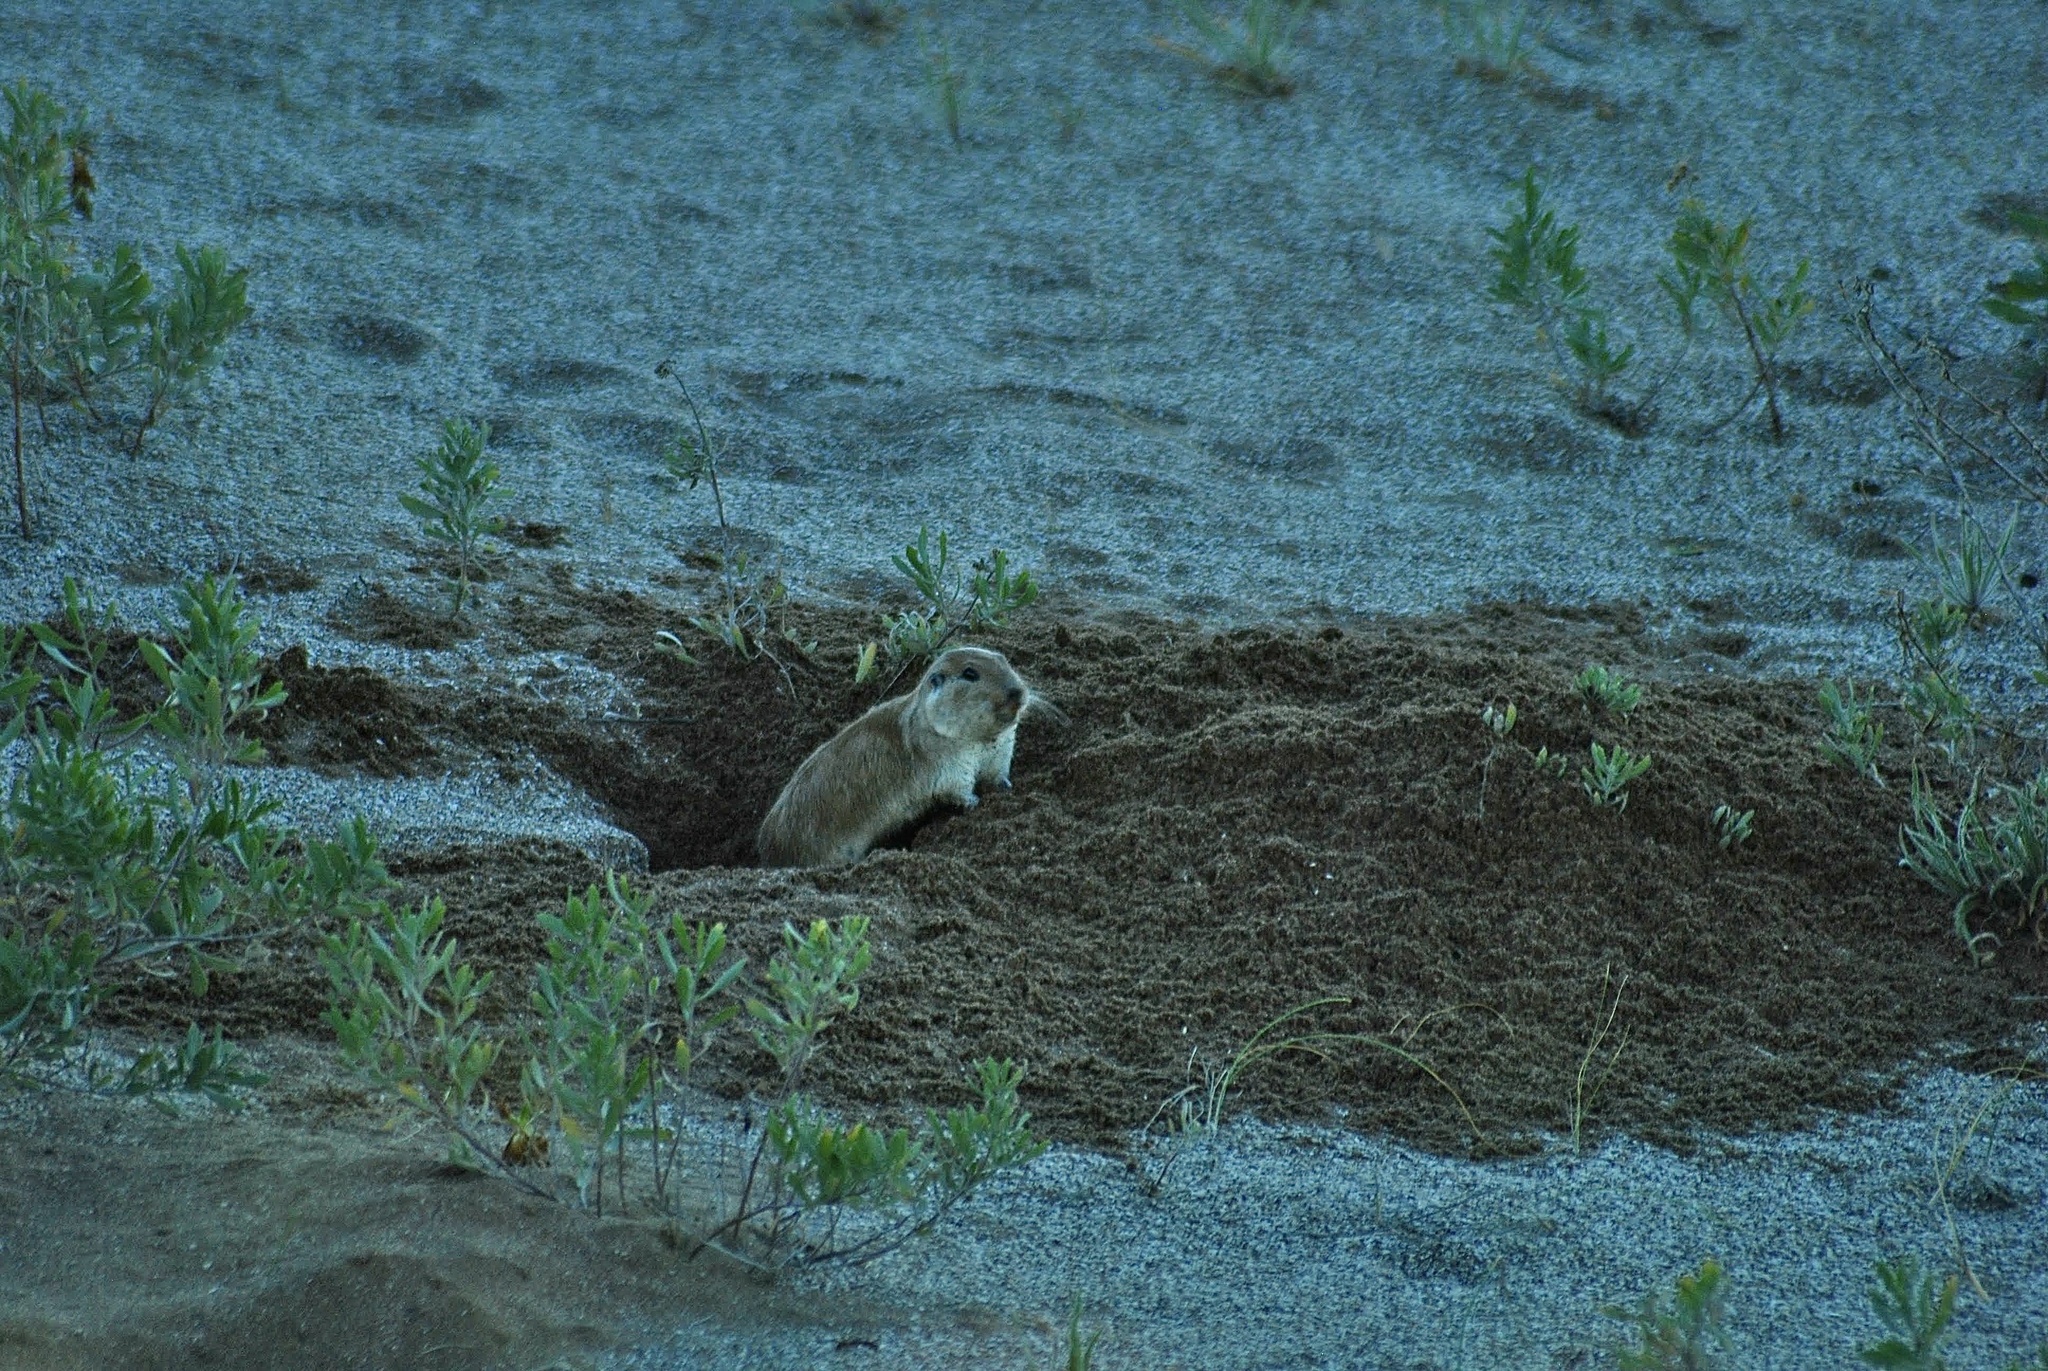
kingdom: Animalia
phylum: Chordata
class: Mammalia
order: Rodentia
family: Ctenomyidae
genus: Ctenomys
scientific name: Ctenomys australis
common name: Southern tuco-tuco
